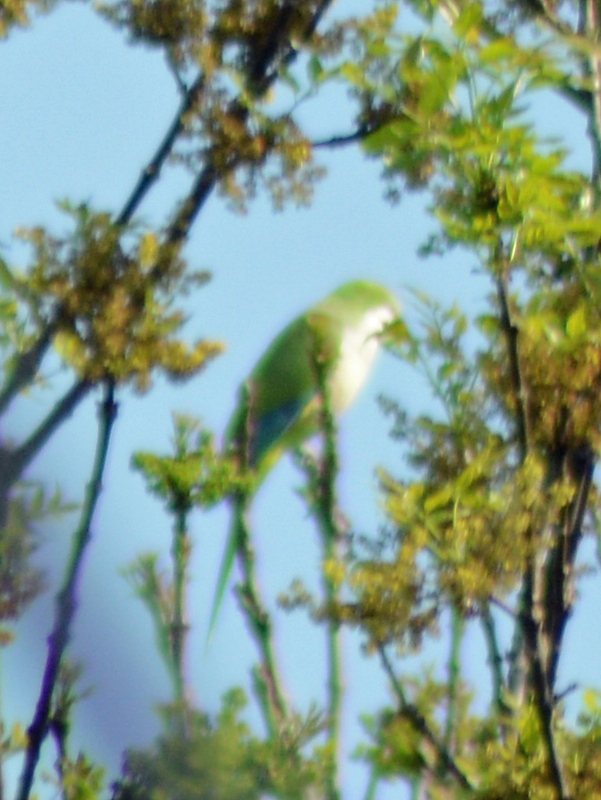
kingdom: Animalia
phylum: Chordata
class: Aves
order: Psittaciformes
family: Psittacidae
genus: Myiopsitta
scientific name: Myiopsitta monachus
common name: Monk parakeet
